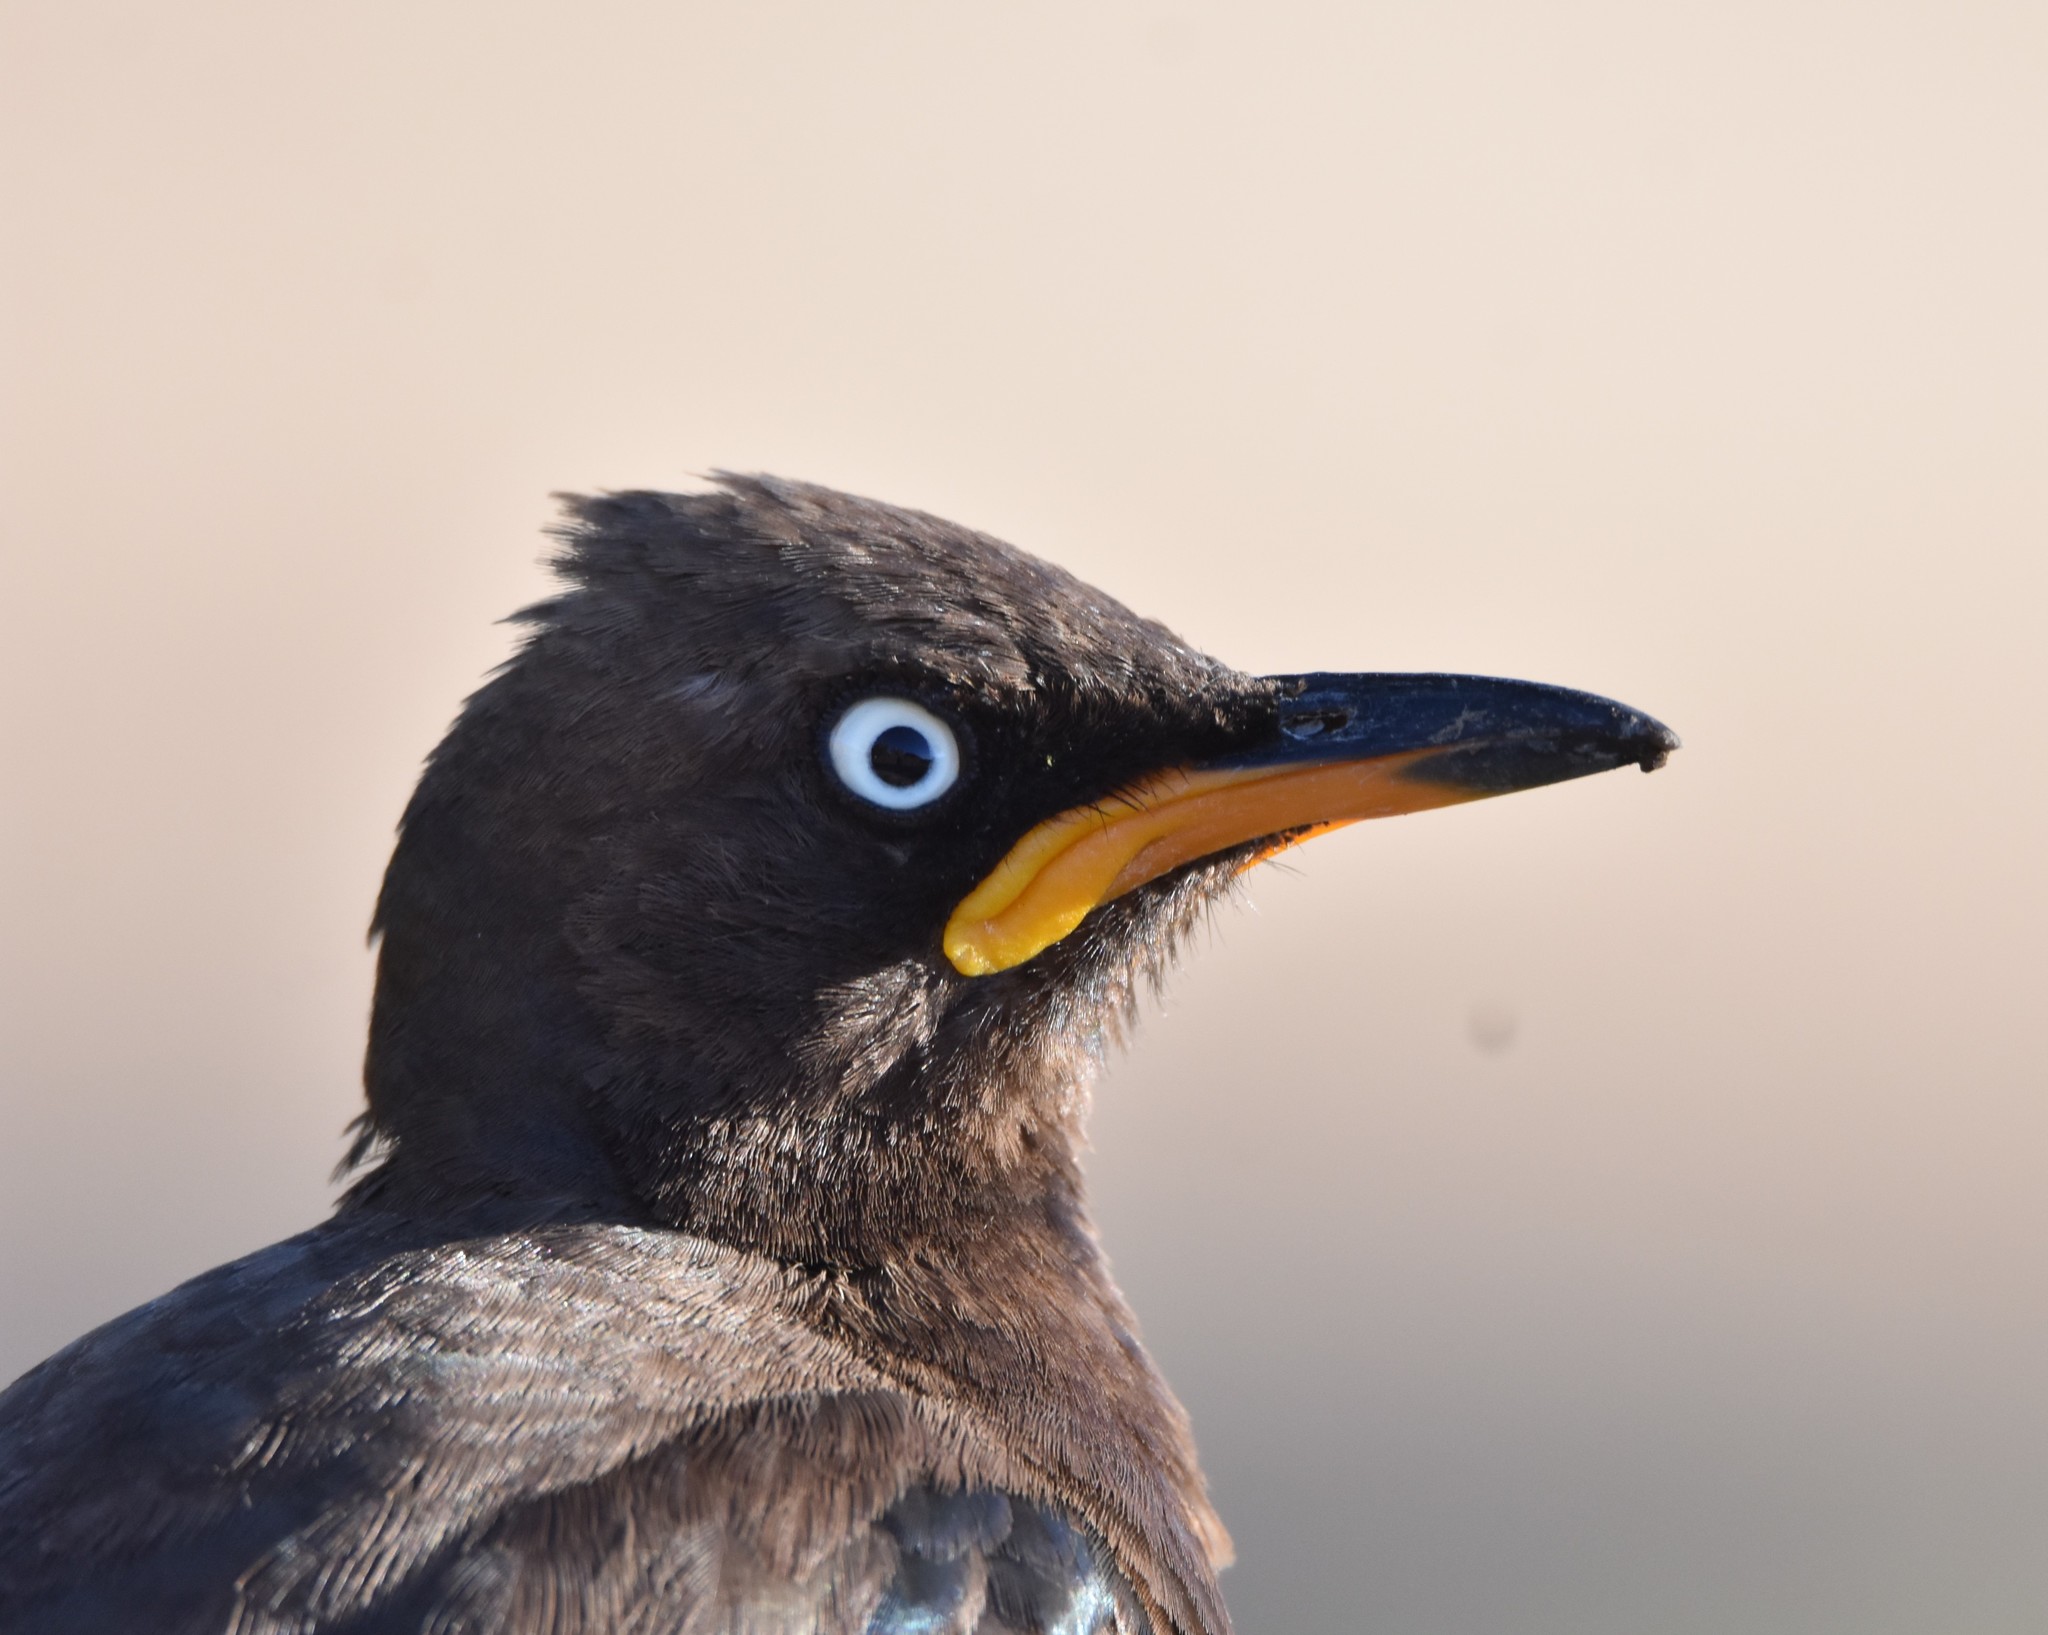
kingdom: Animalia
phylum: Chordata
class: Aves
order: Passeriformes
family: Sturnidae
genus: Lamprotornis
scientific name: Lamprotornis bicolor
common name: Pied starling
